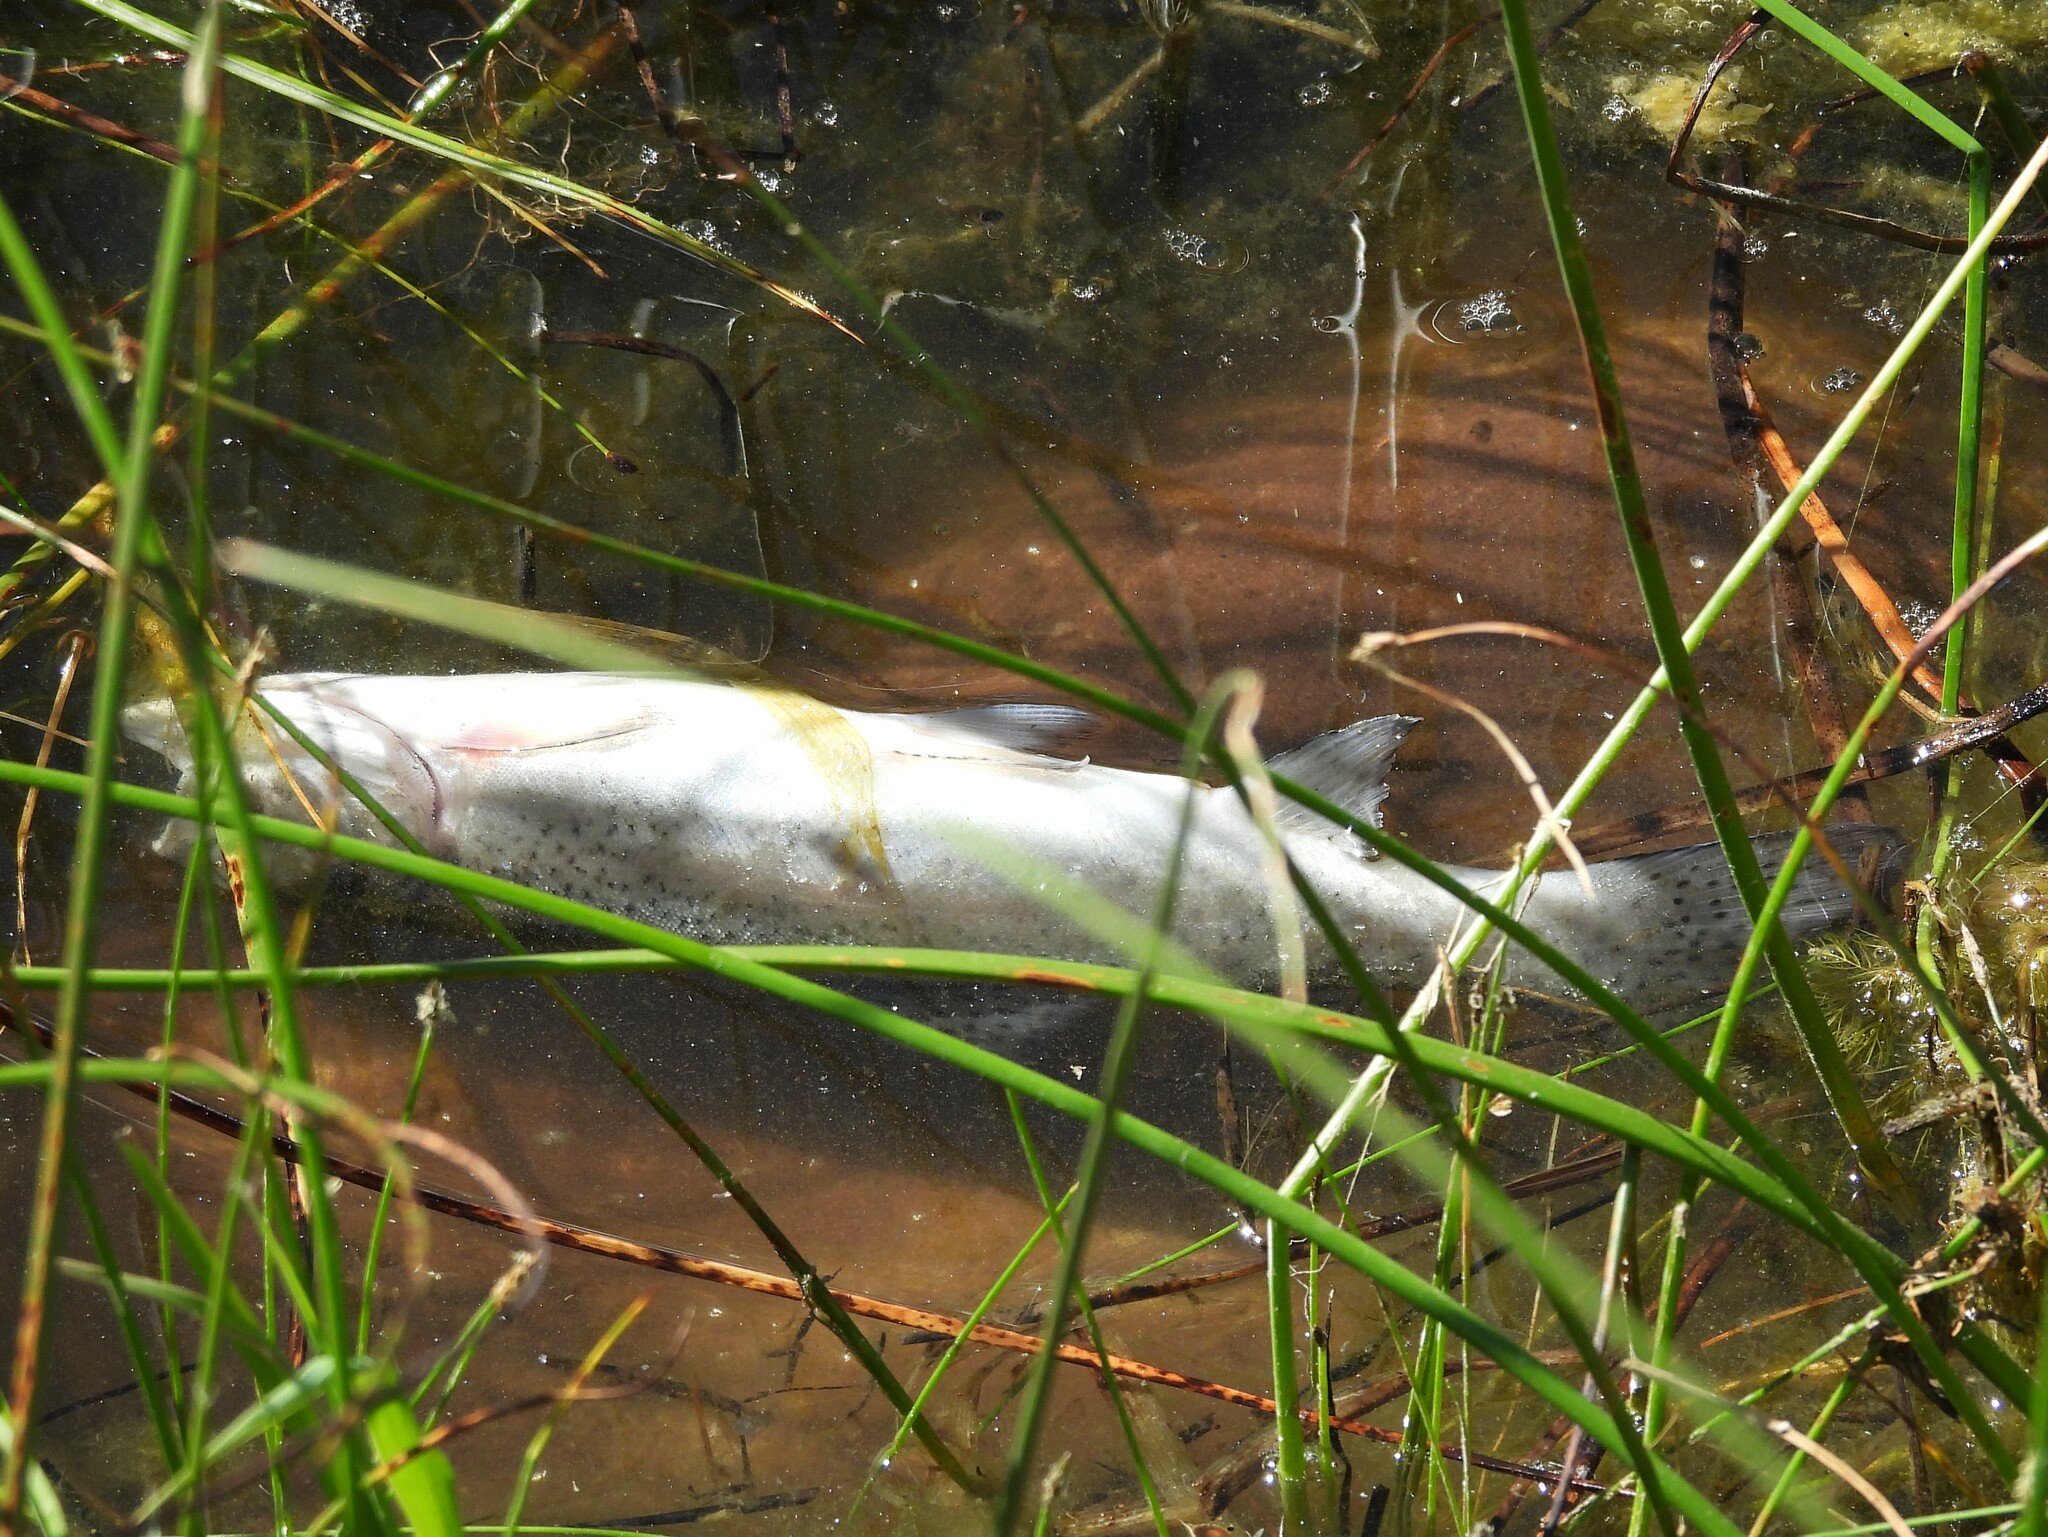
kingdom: Animalia
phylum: Chordata
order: Salmoniformes
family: Salmonidae
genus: Oncorhynchus
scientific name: Oncorhynchus mykiss
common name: Rainbow trout
